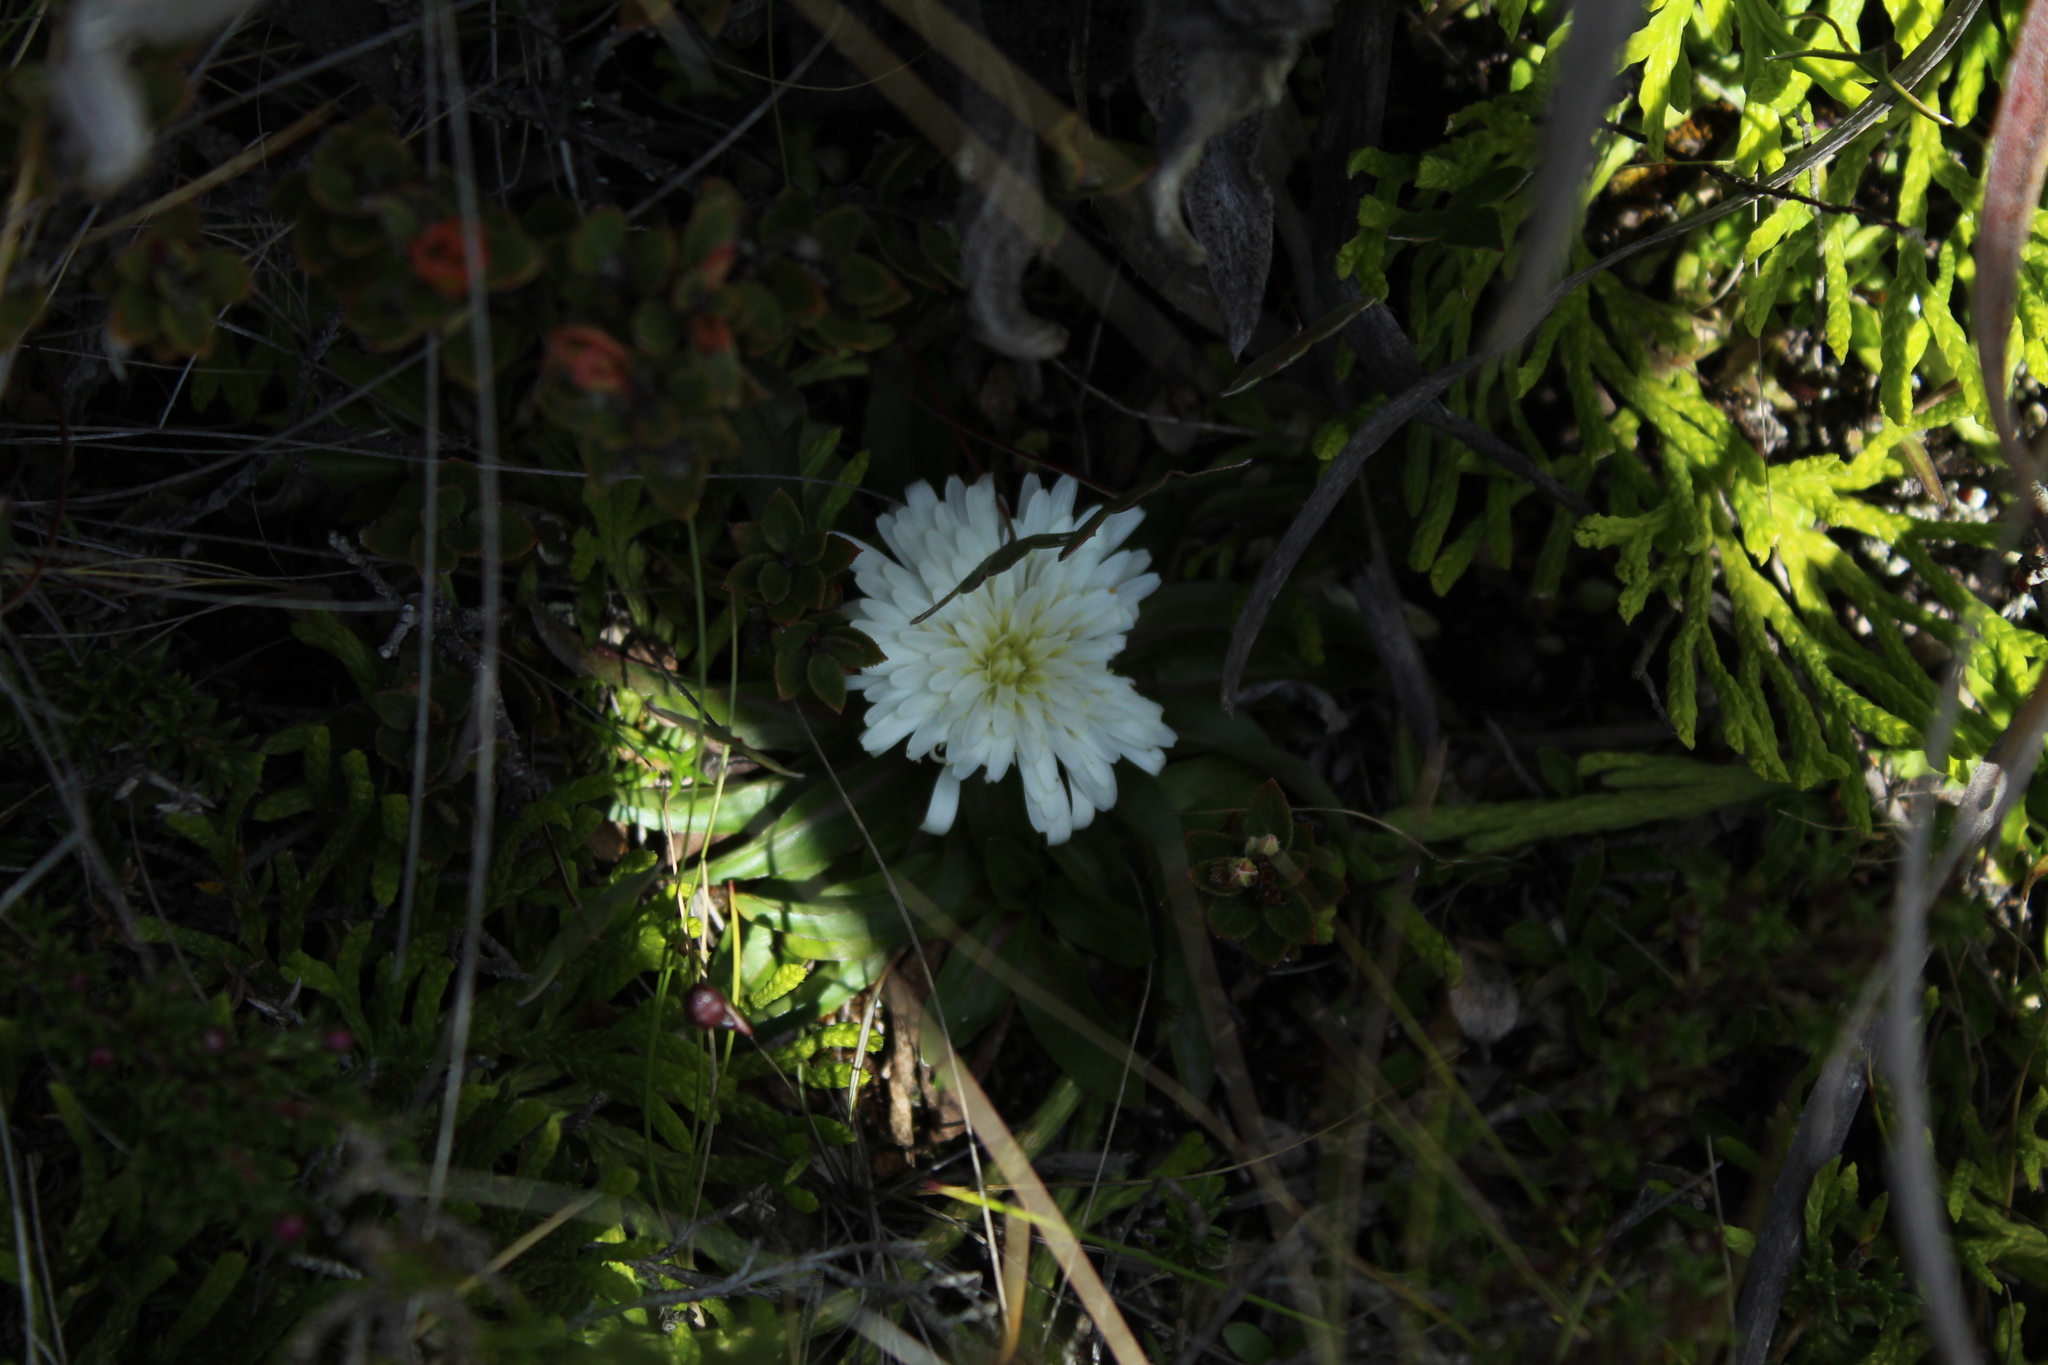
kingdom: Plantae
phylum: Tracheophyta
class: Magnoliopsida
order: Asterales
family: Asteraceae
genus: Hypochaeris
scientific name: Hypochaeris sessiliflora
